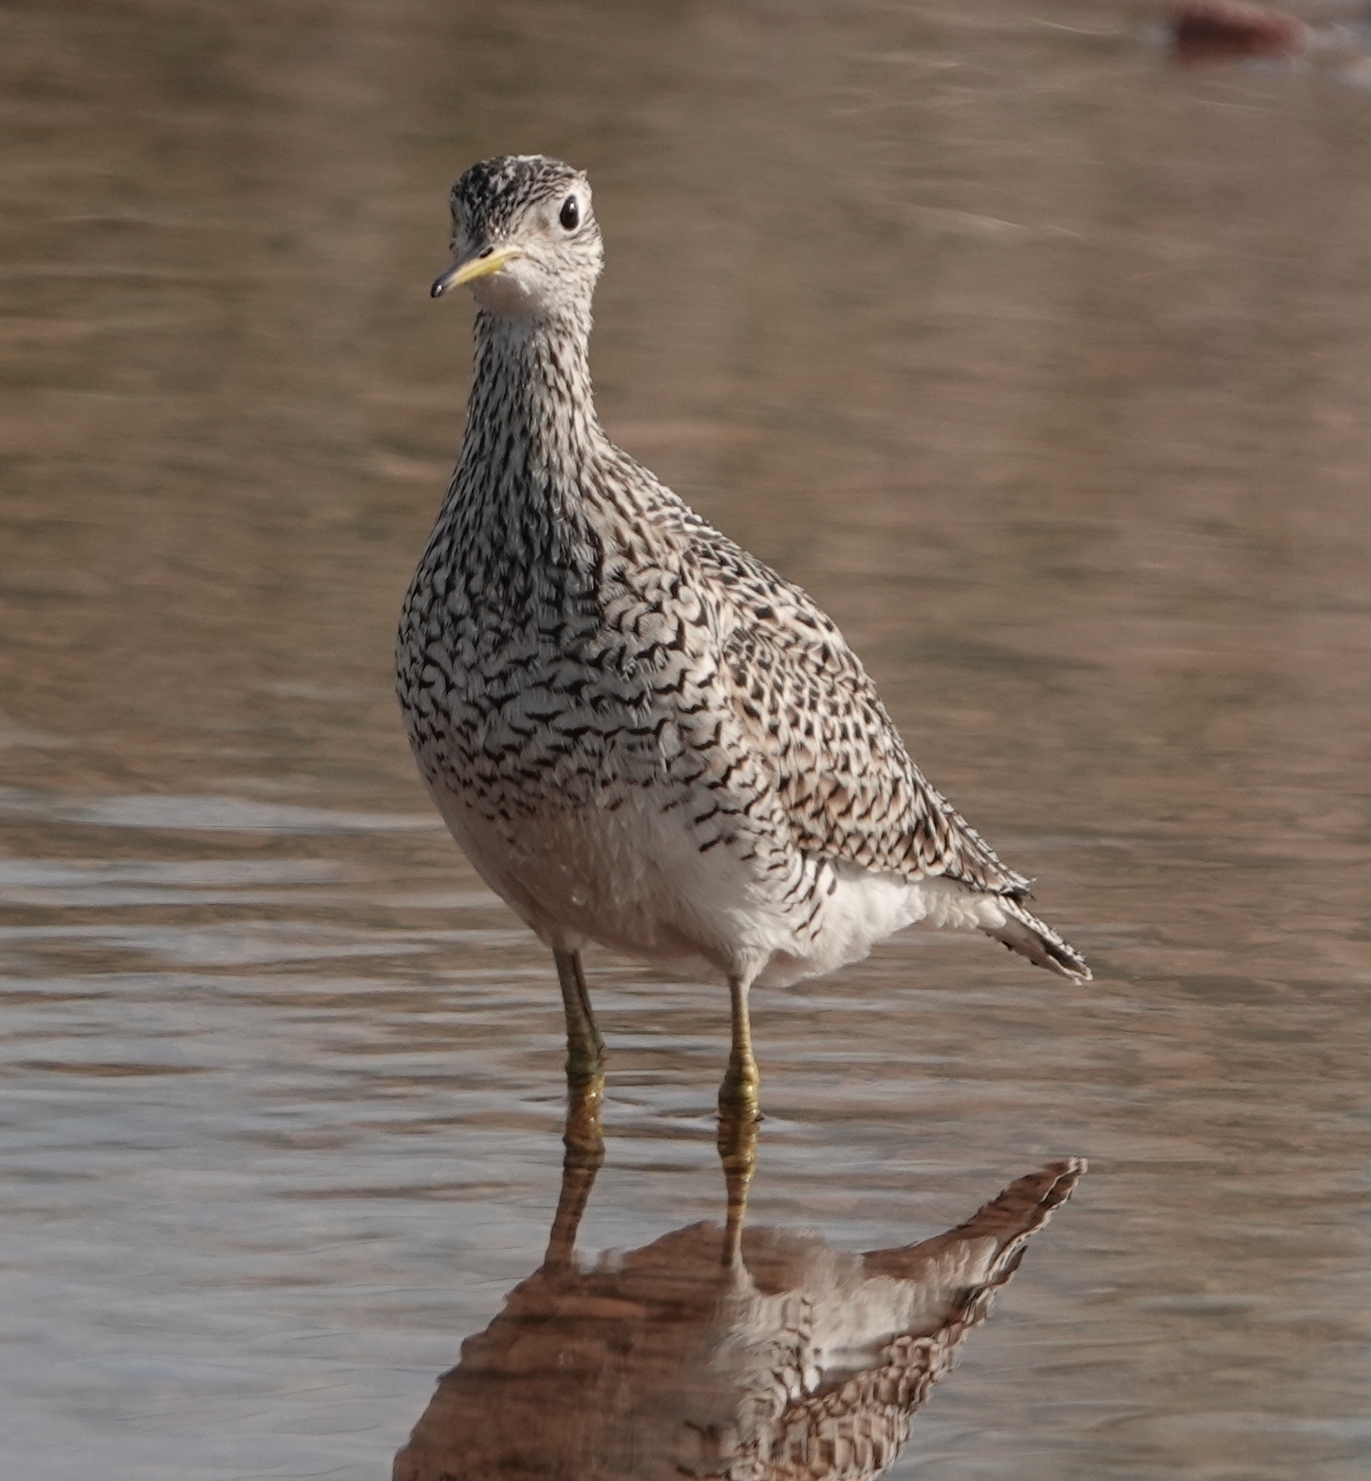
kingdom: Animalia
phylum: Chordata
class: Aves
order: Charadriiformes
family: Scolopacidae
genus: Bartramia
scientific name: Bartramia longicauda
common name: Upland sandpiper
